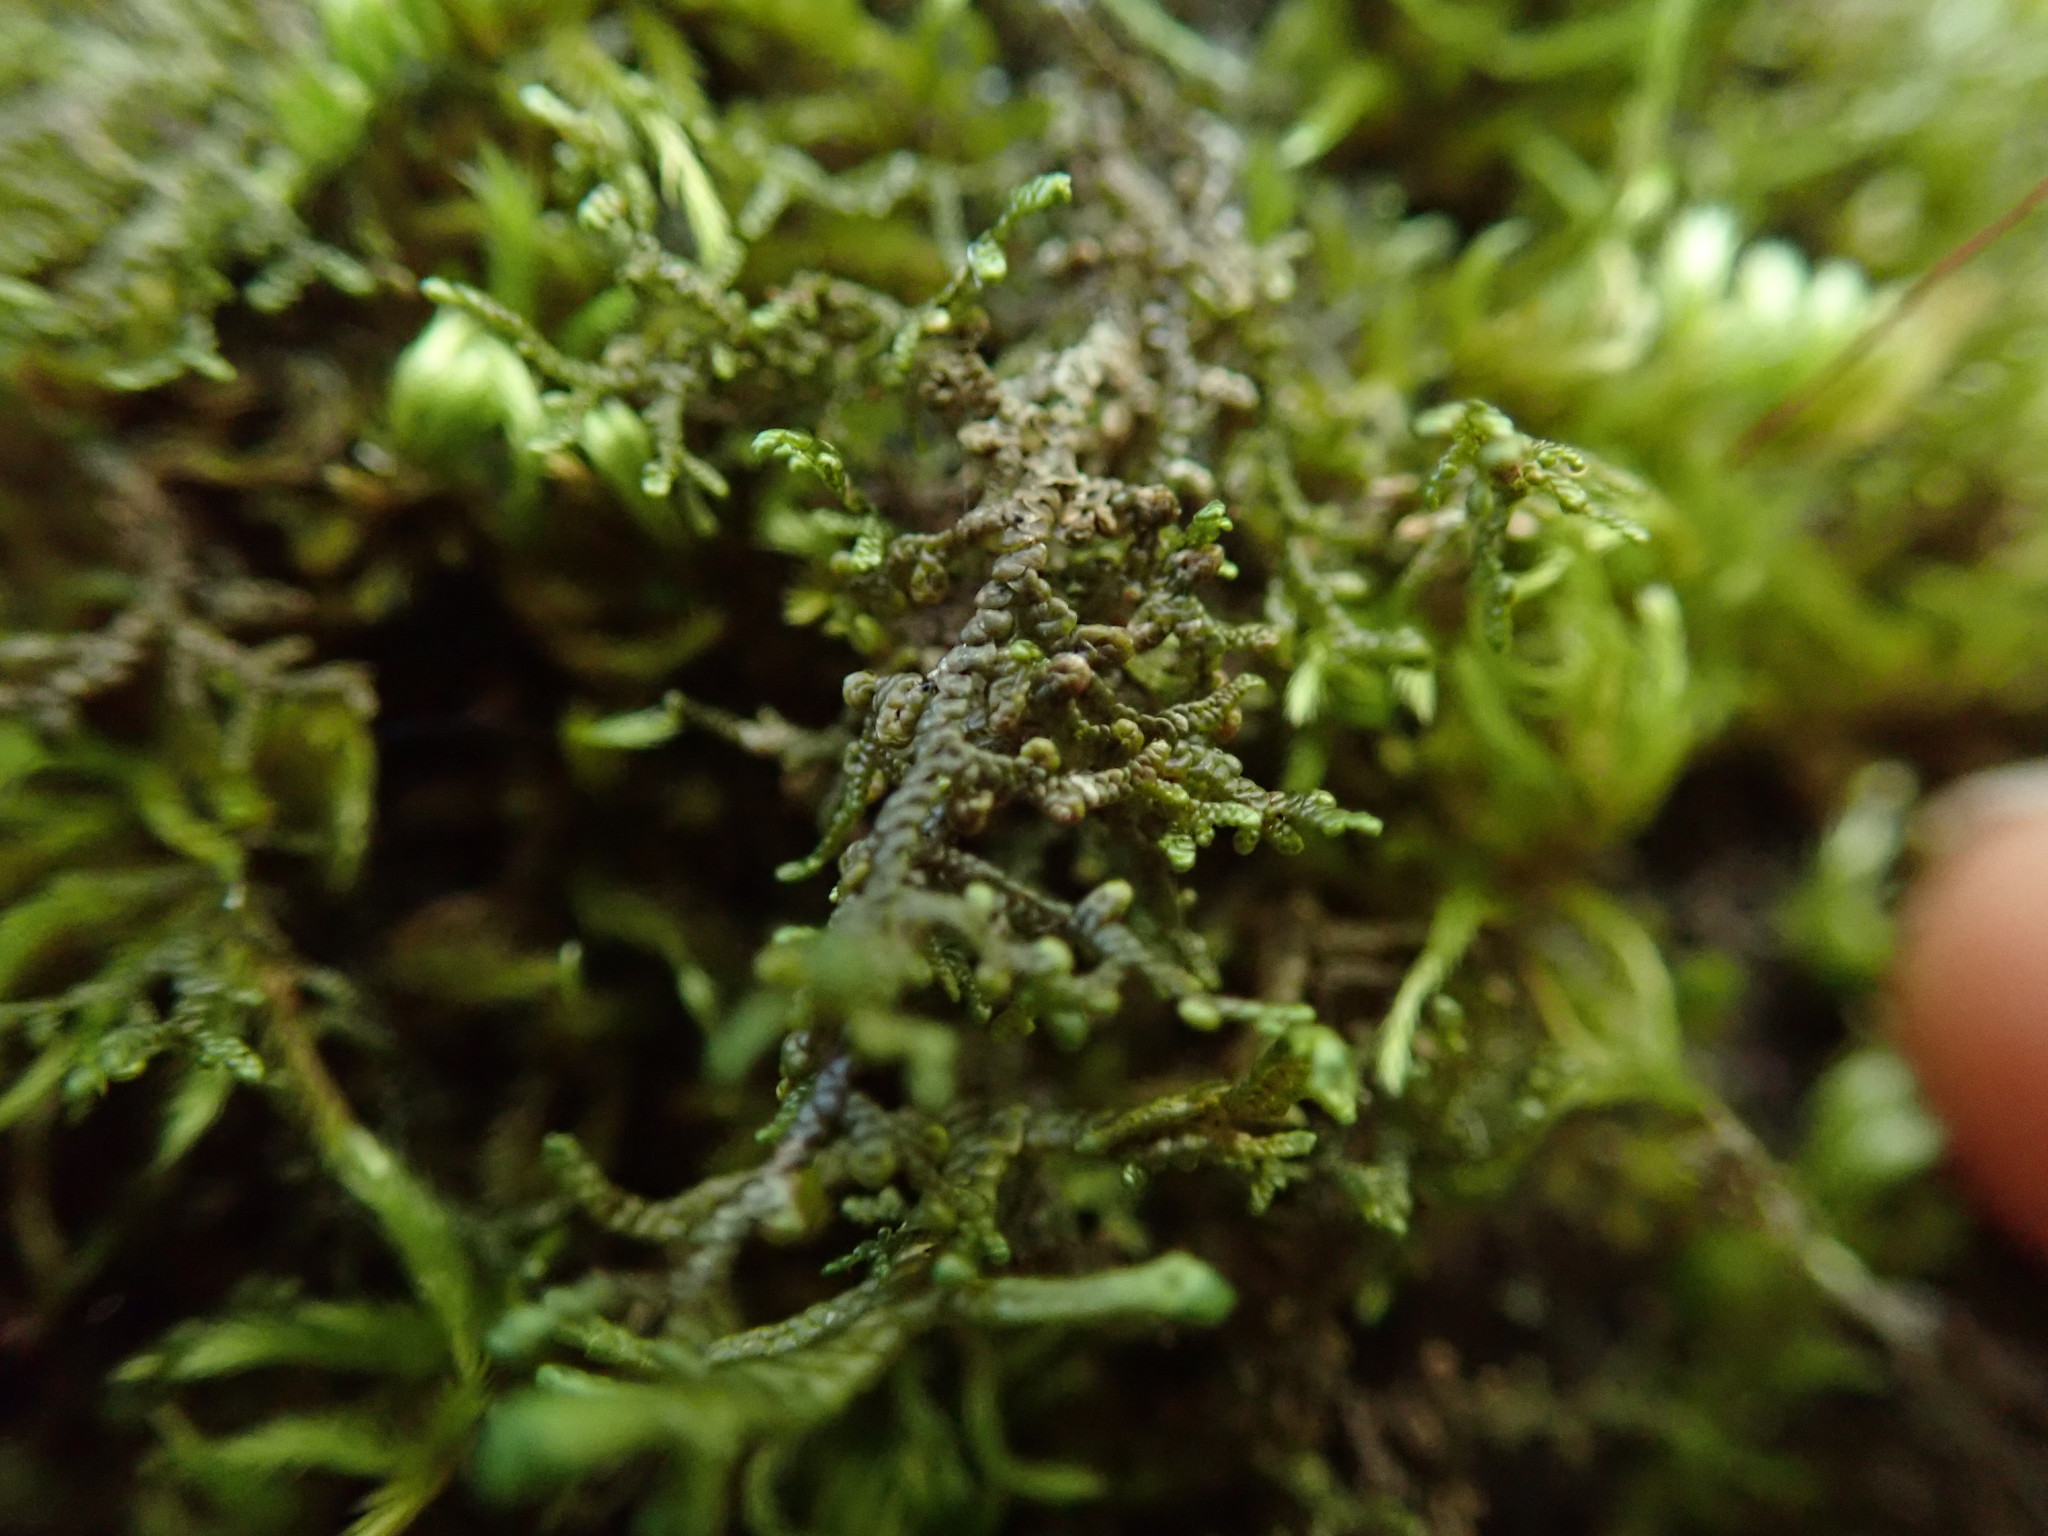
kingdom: Plantae
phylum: Marchantiophyta
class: Jungermanniopsida
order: Porellales
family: Frullaniaceae
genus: Frullania
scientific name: Frullania nisquallensis
